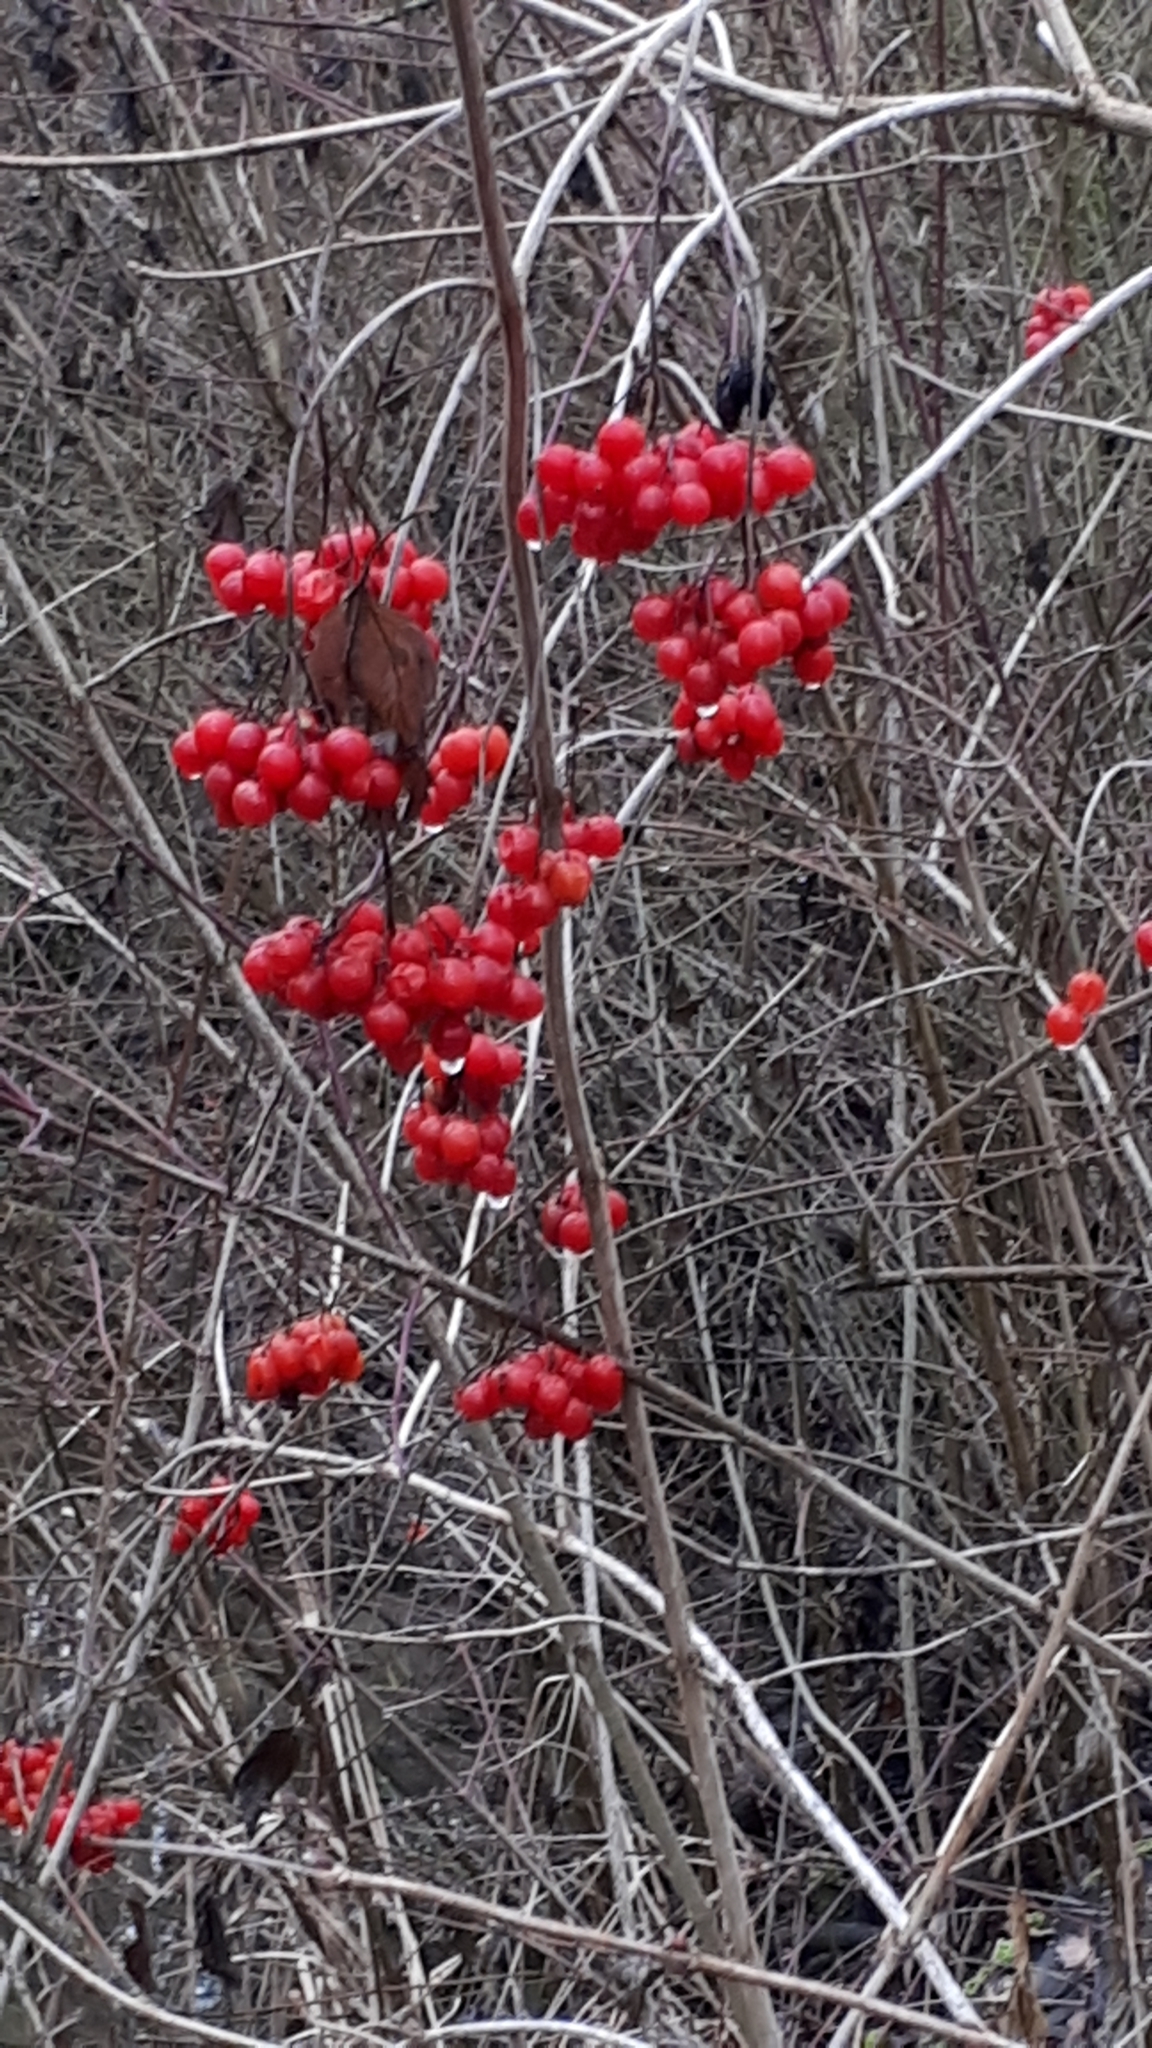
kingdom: Plantae
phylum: Tracheophyta
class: Magnoliopsida
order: Dipsacales
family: Viburnaceae
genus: Viburnum
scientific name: Viburnum opulus
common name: Guelder-rose
